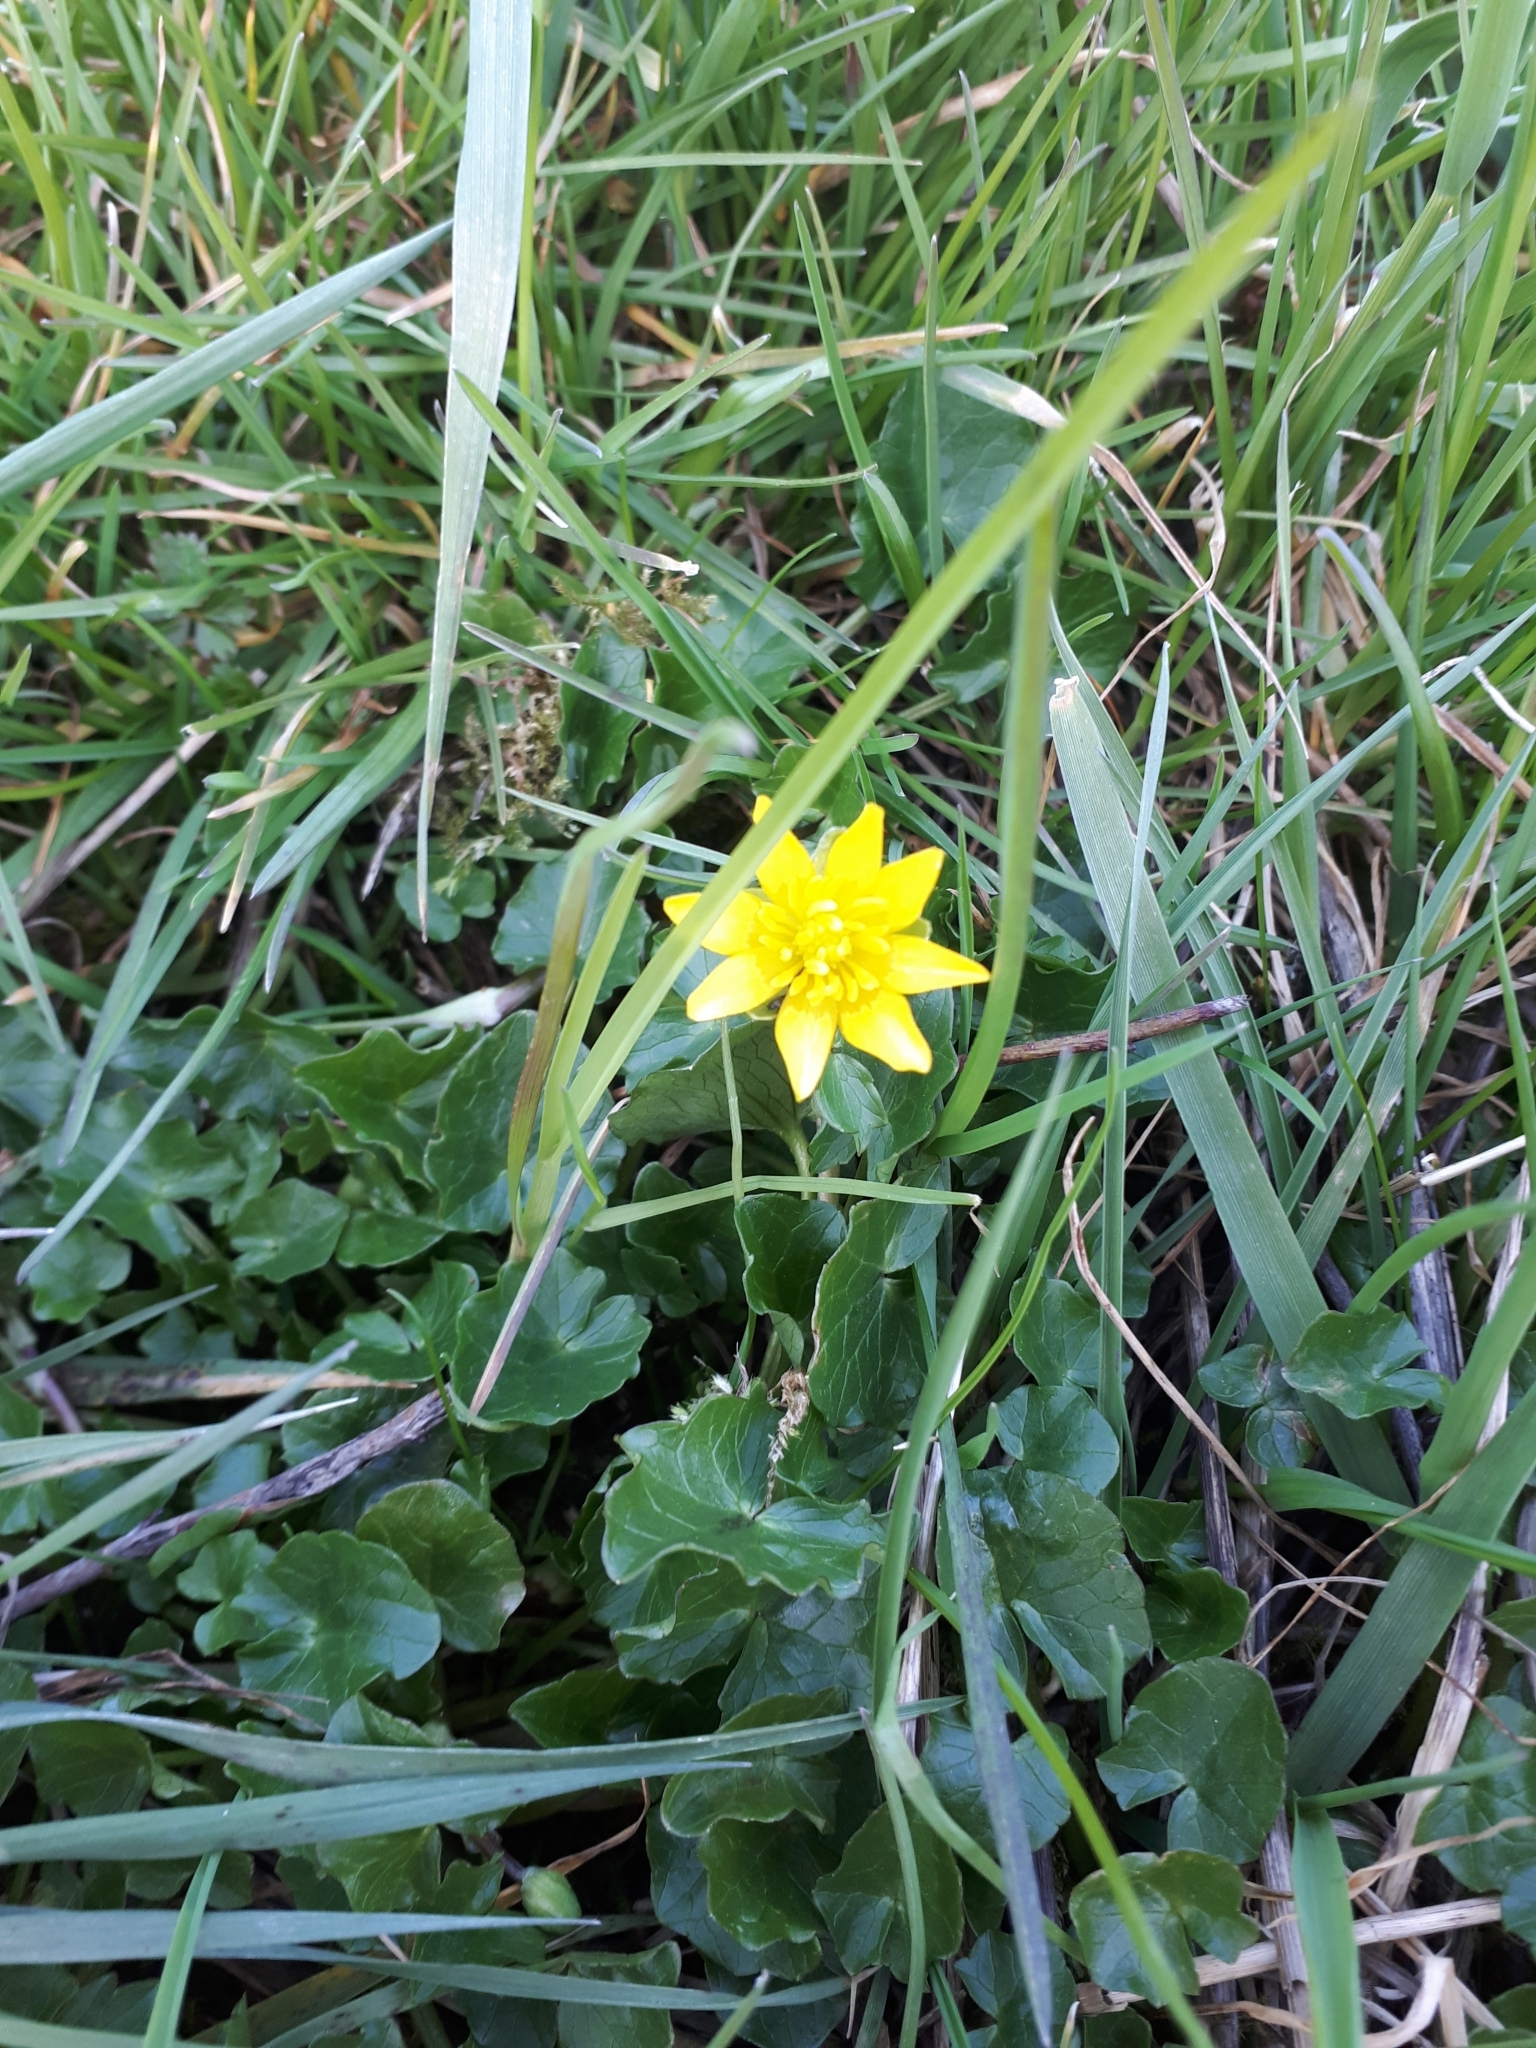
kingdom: Plantae
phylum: Tracheophyta
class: Magnoliopsida
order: Ranunculales
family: Ranunculaceae
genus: Ficaria
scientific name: Ficaria verna
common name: Lesser celandine
